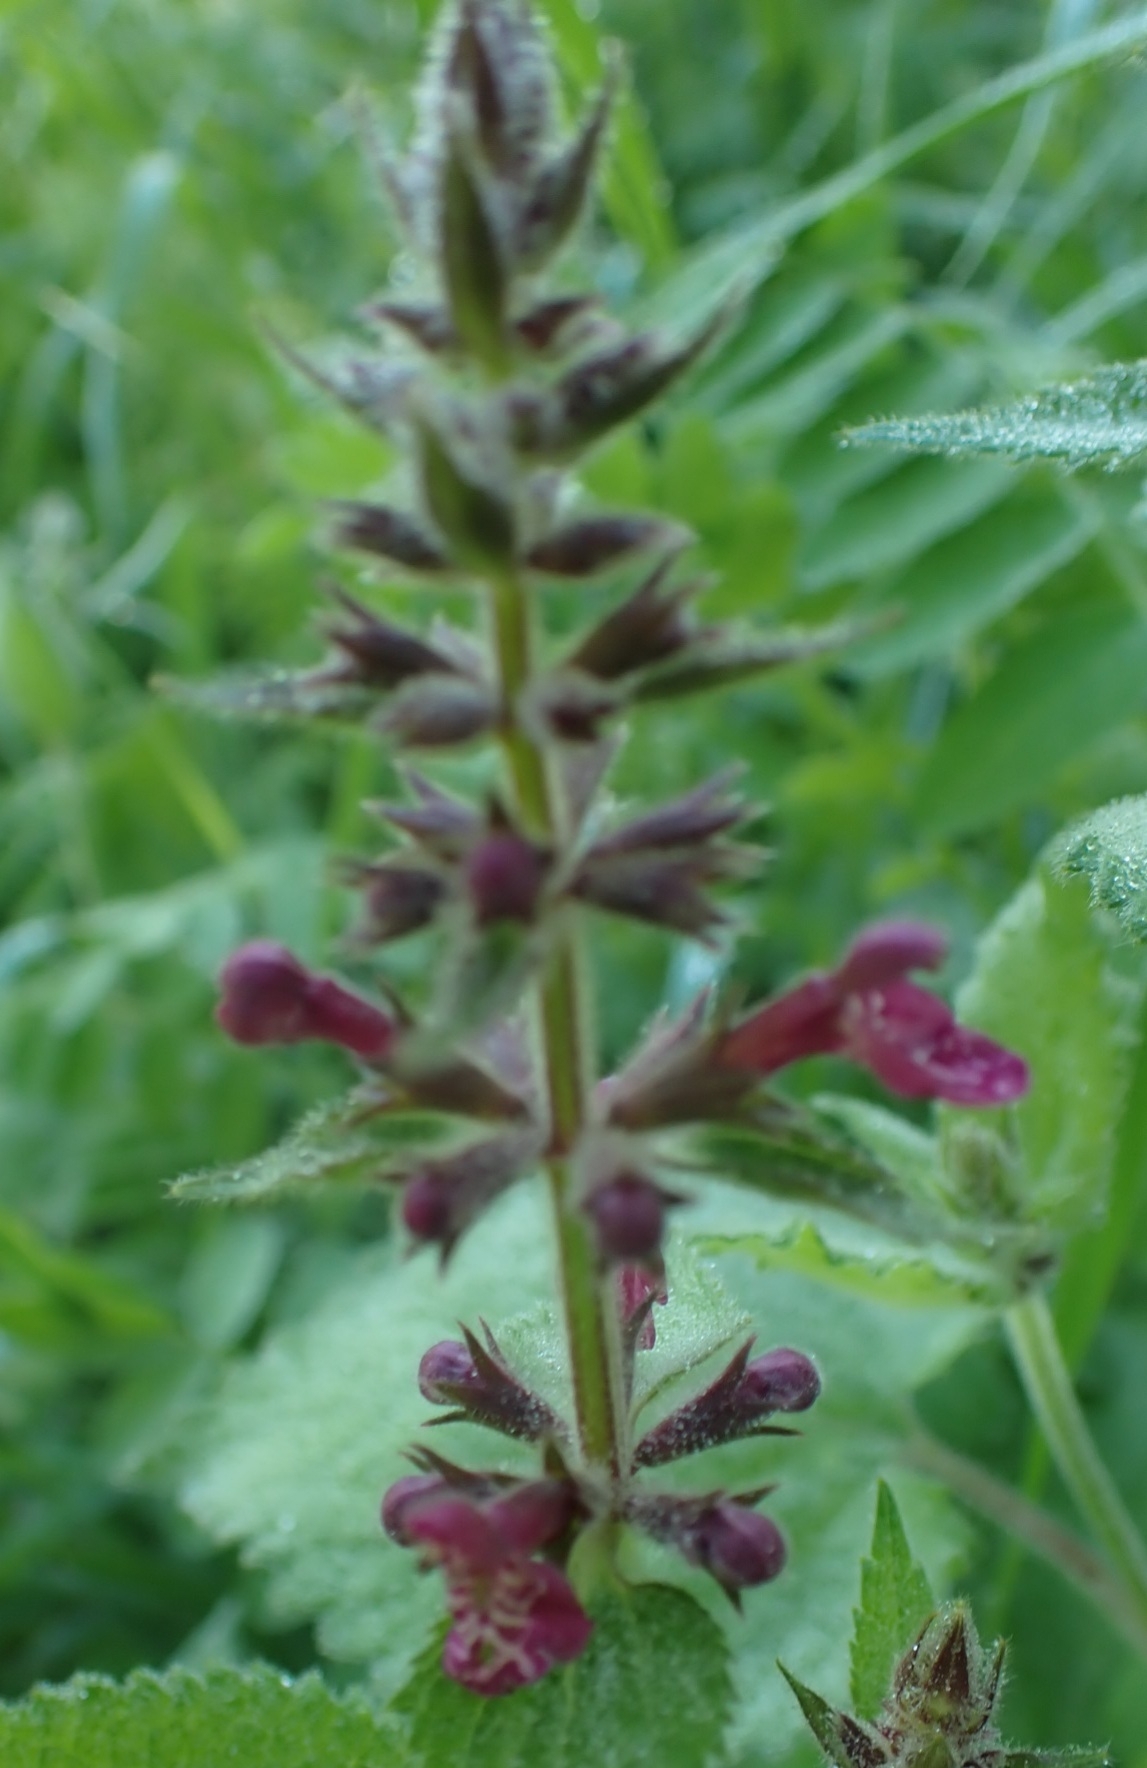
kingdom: Plantae
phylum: Tracheophyta
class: Magnoliopsida
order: Lamiales
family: Lamiaceae
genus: Stachys
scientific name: Stachys sylvatica
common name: Hedge woundwort
